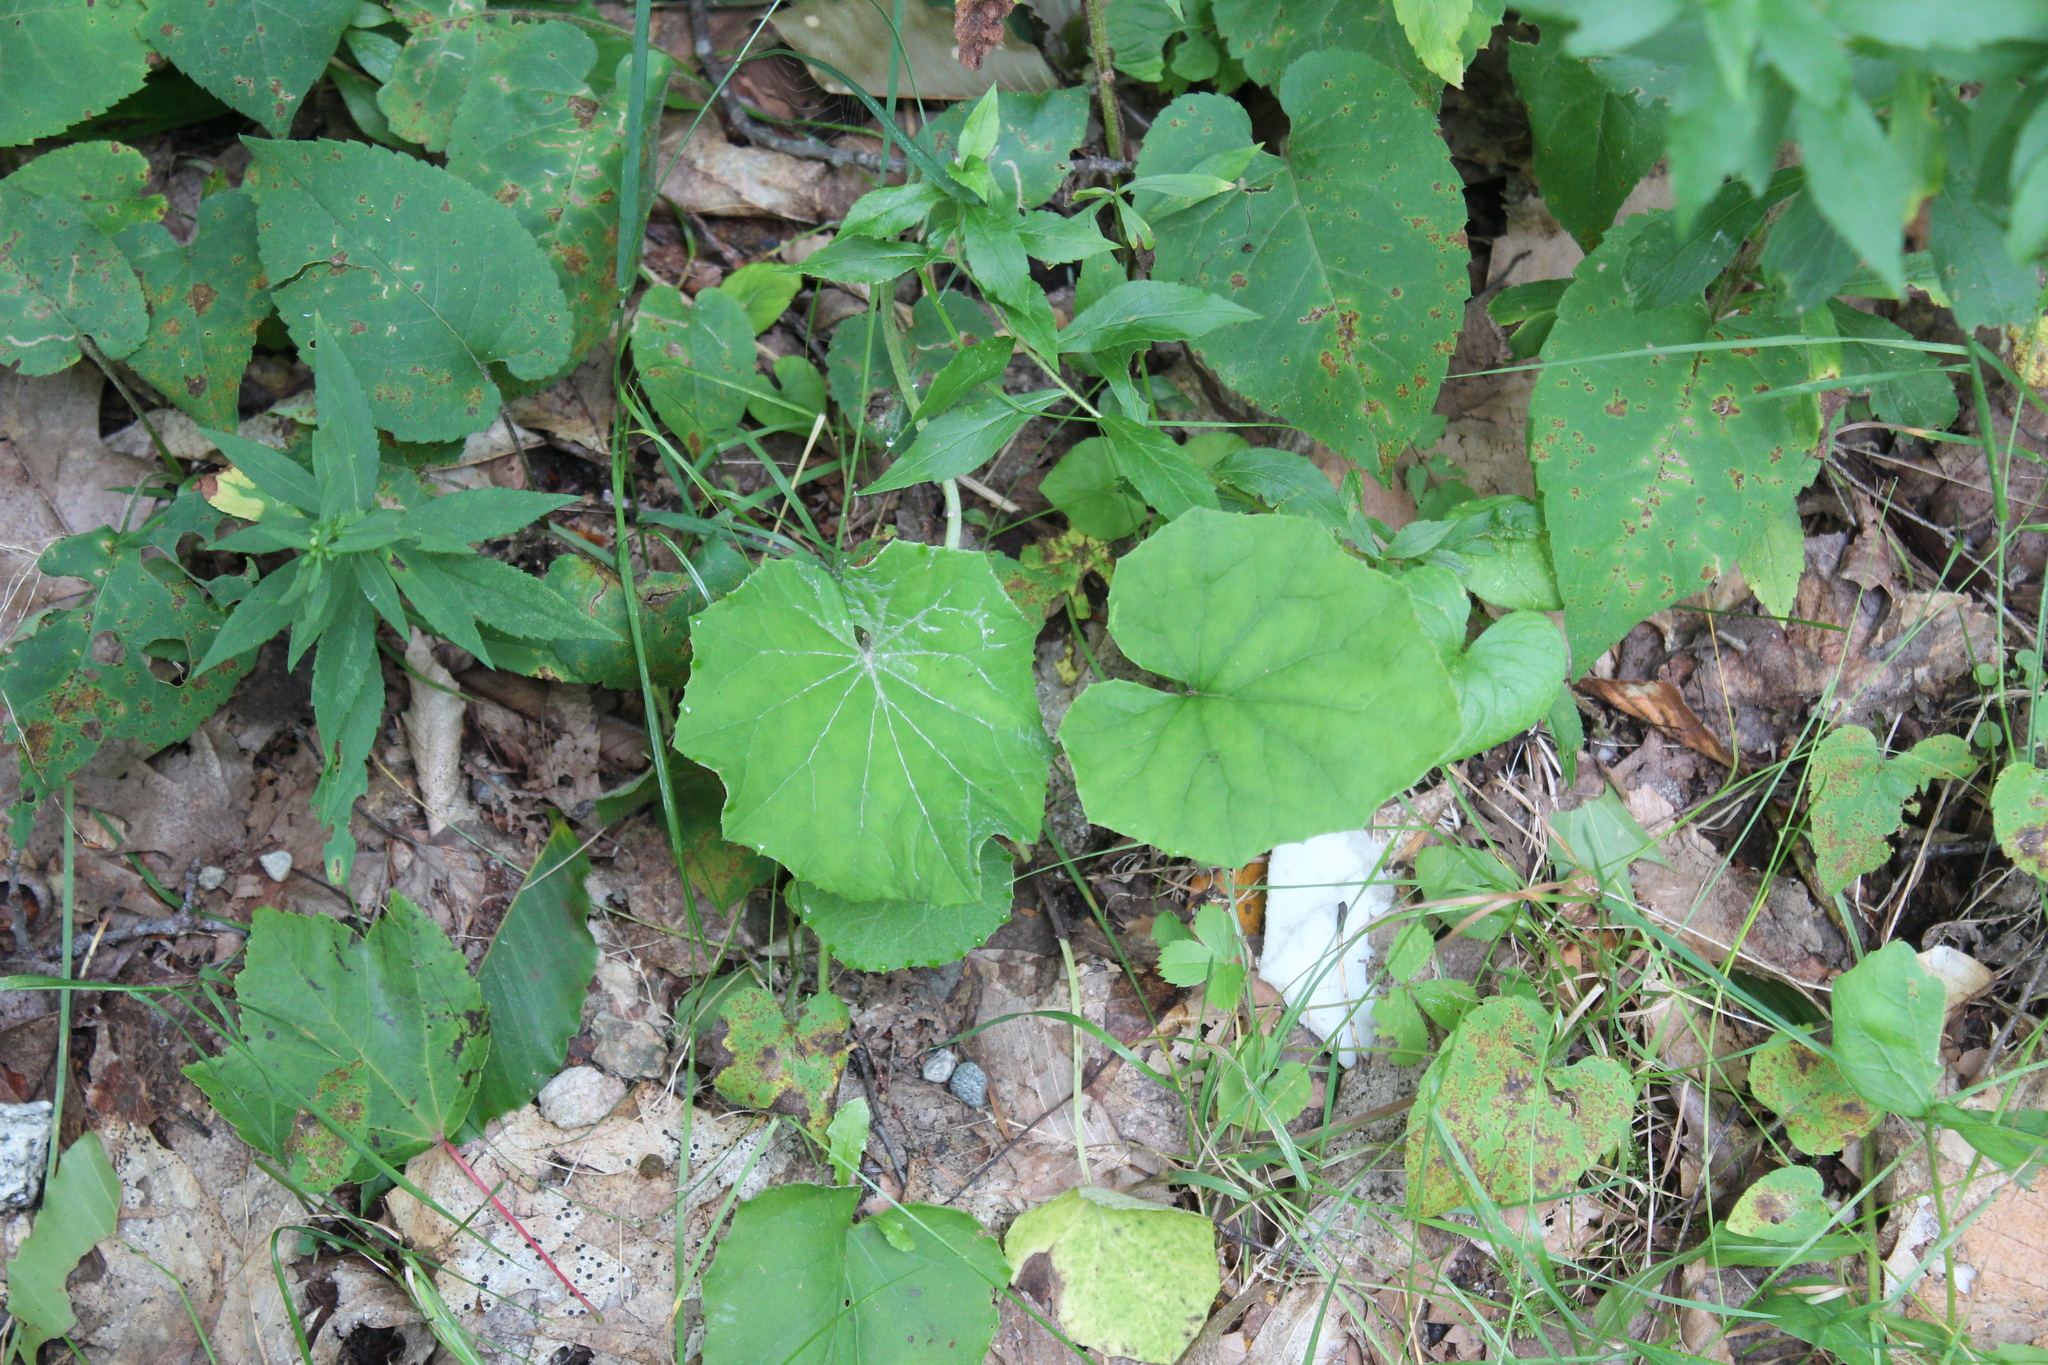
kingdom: Plantae
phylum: Tracheophyta
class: Magnoliopsida
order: Asterales
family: Asteraceae
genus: Tussilago
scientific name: Tussilago farfara
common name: Coltsfoot
